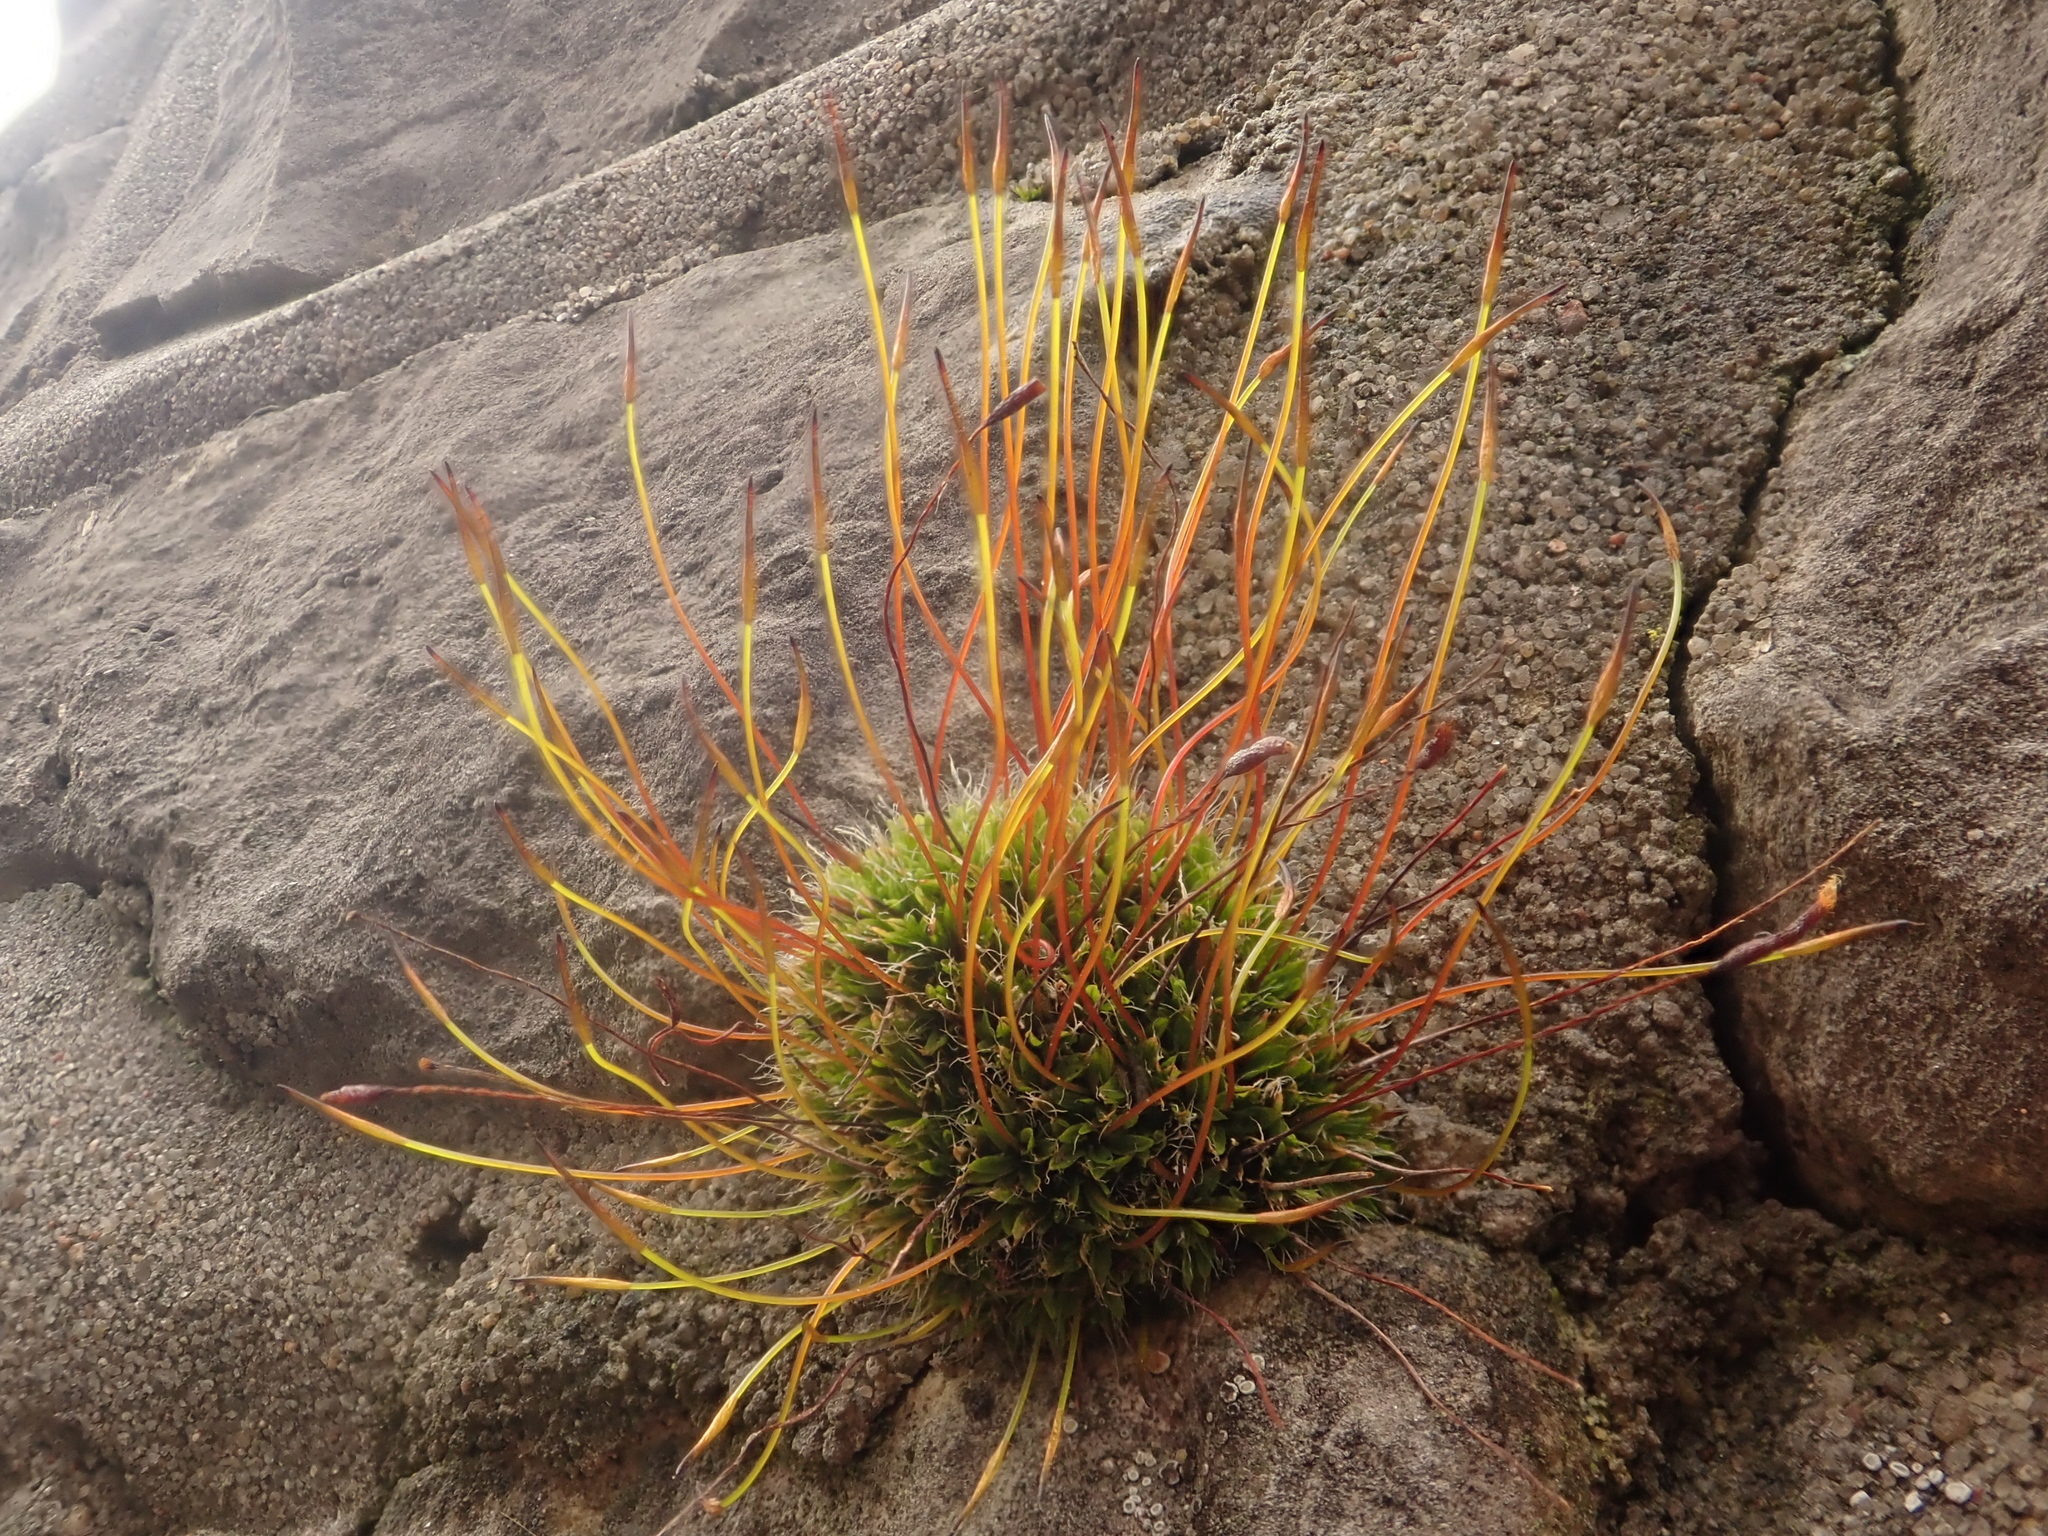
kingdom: Plantae
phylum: Bryophyta
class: Bryopsida
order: Pottiales
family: Pottiaceae
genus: Tortula
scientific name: Tortula muralis
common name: Wall screw-moss
